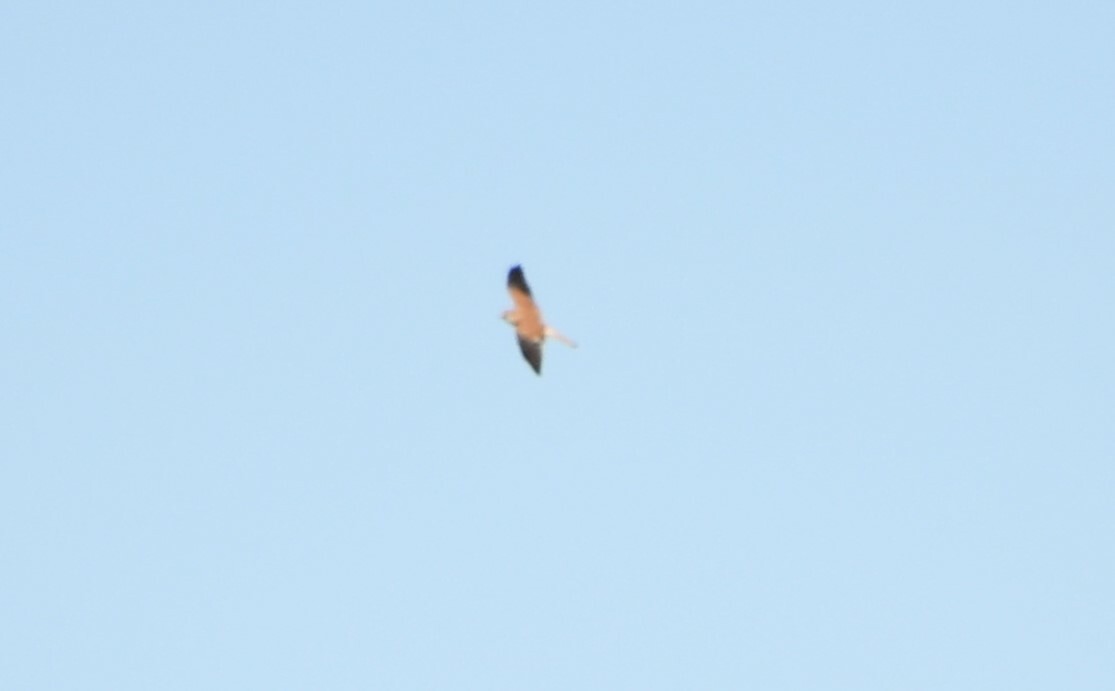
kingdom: Animalia
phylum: Chordata
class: Aves
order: Falconiformes
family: Falconidae
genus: Falco
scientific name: Falco cenchroides
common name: Nankeen kestrel
